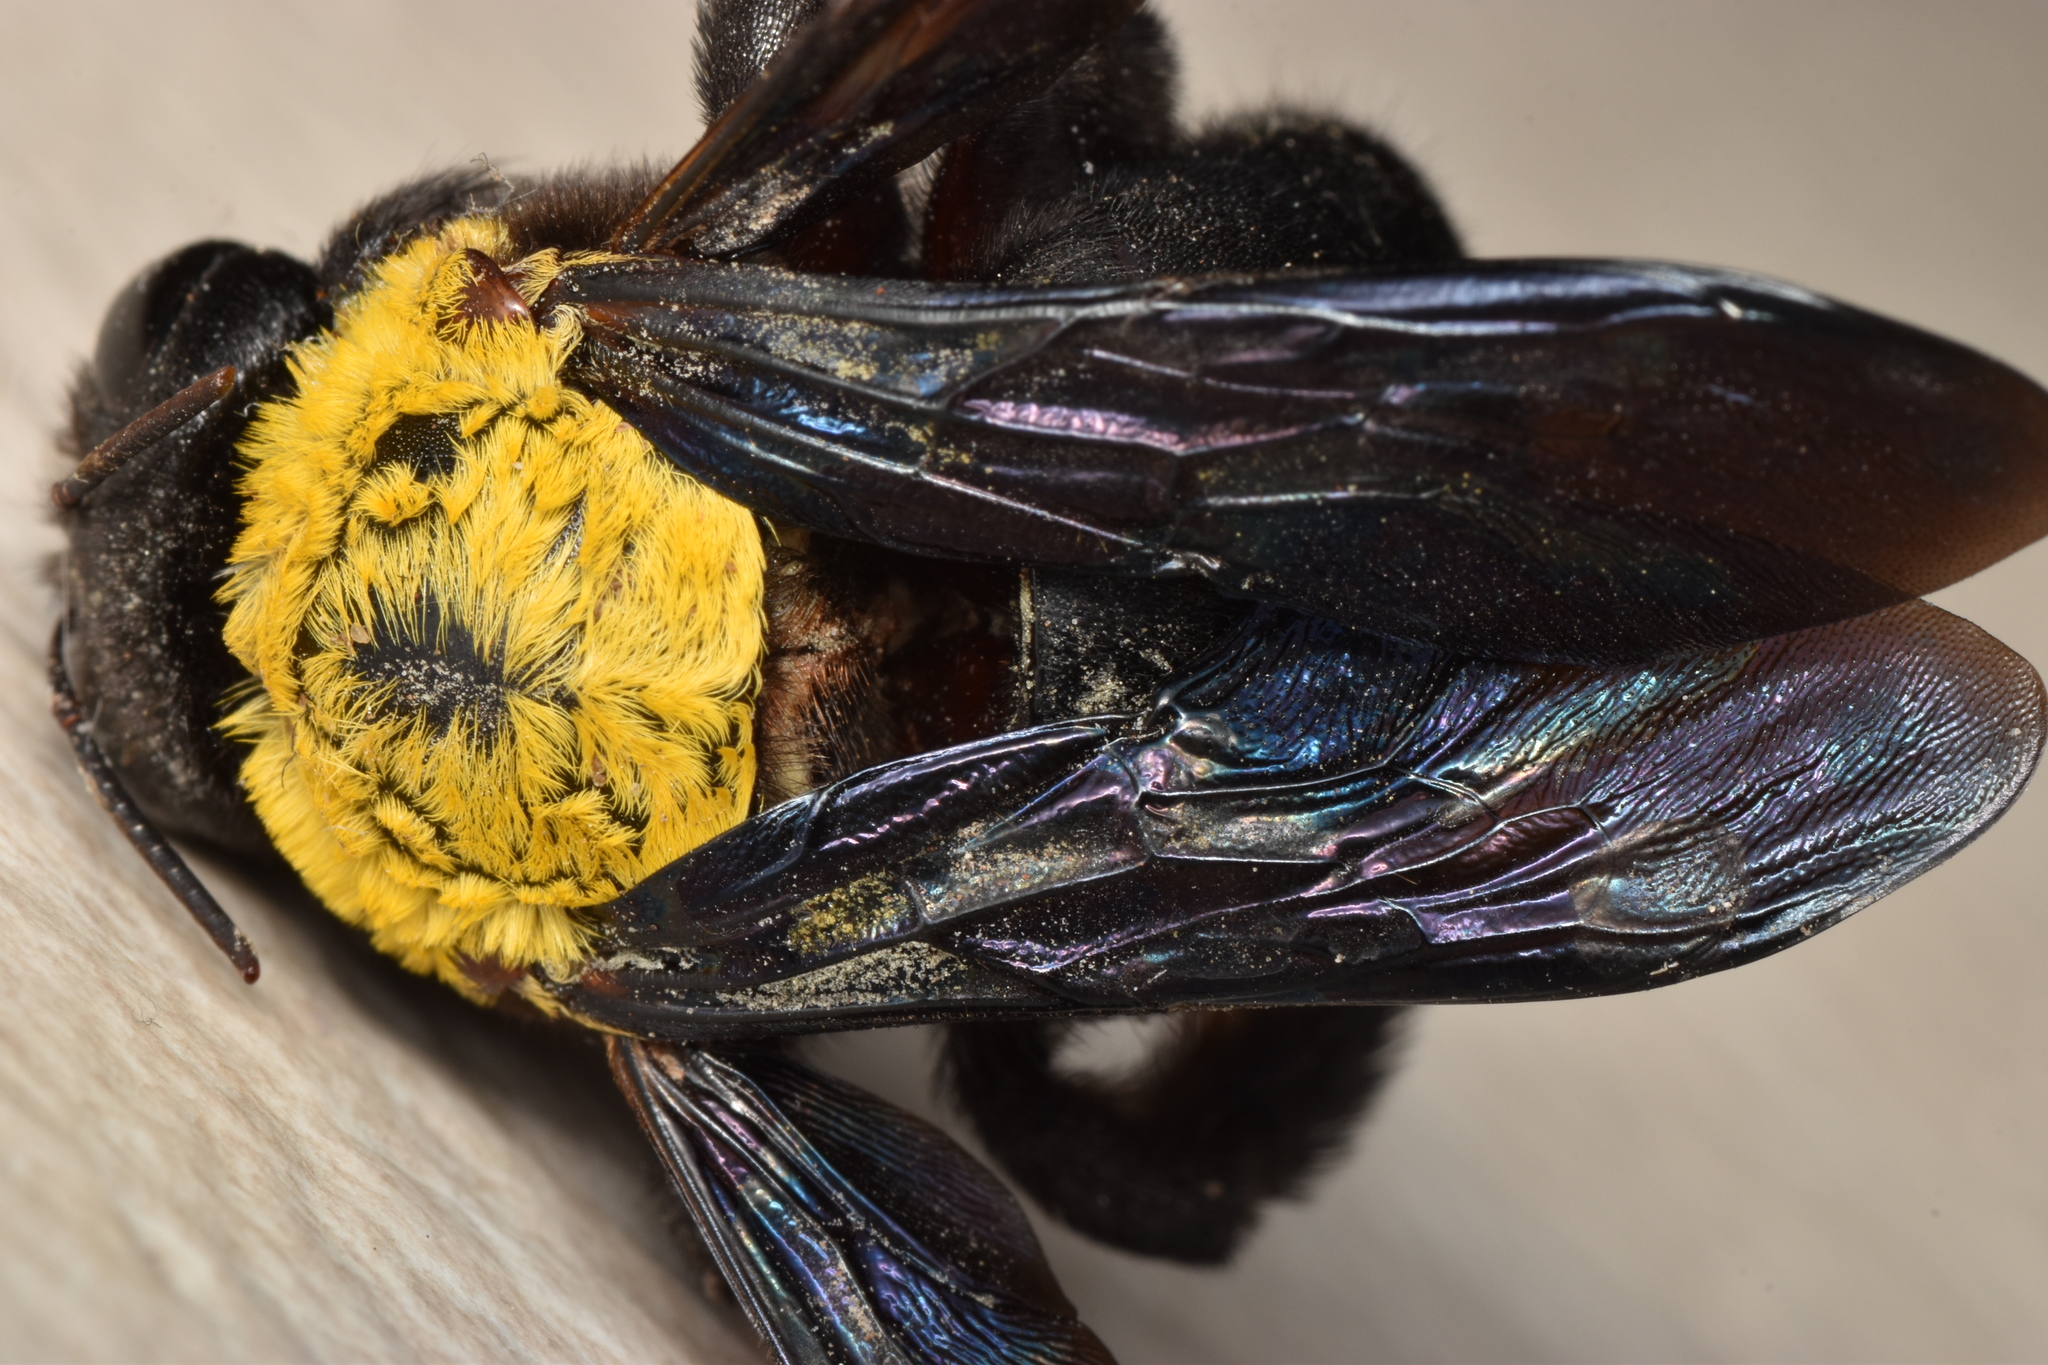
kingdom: Animalia
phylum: Arthropoda
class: Insecta
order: Hymenoptera
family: Apidae
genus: Xylocopa
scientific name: Xylocopa pubescens
